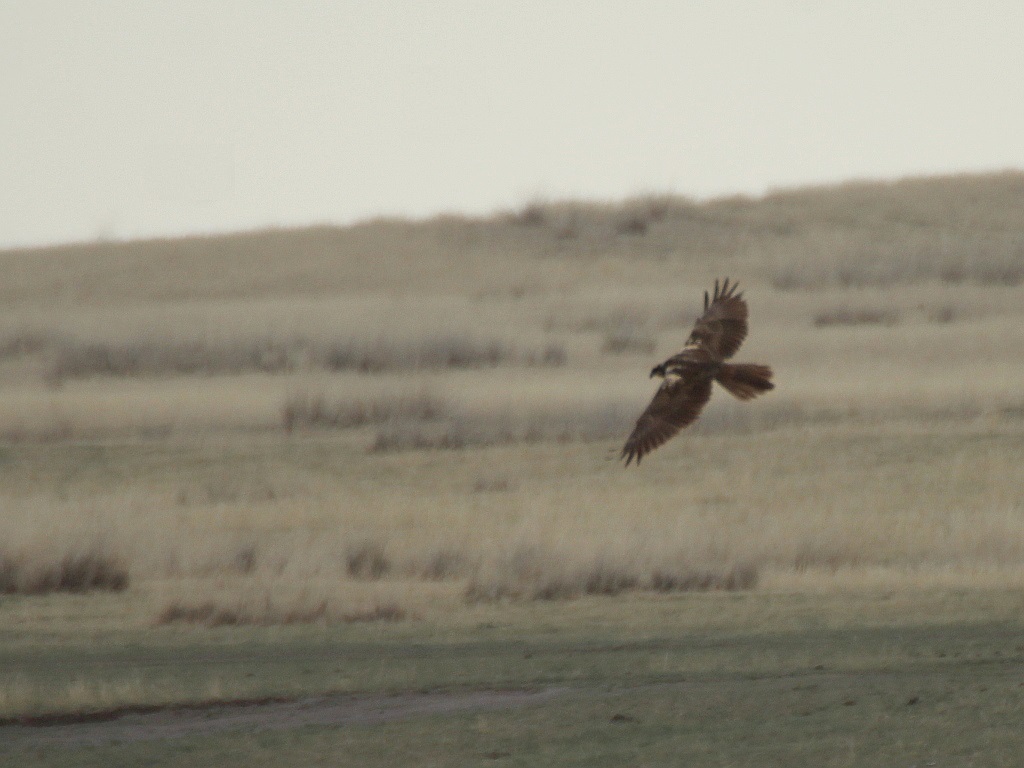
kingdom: Animalia
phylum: Chordata
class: Aves
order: Accipitriformes
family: Accipitridae
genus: Circus
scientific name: Circus aeruginosus
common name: Western marsh harrier
